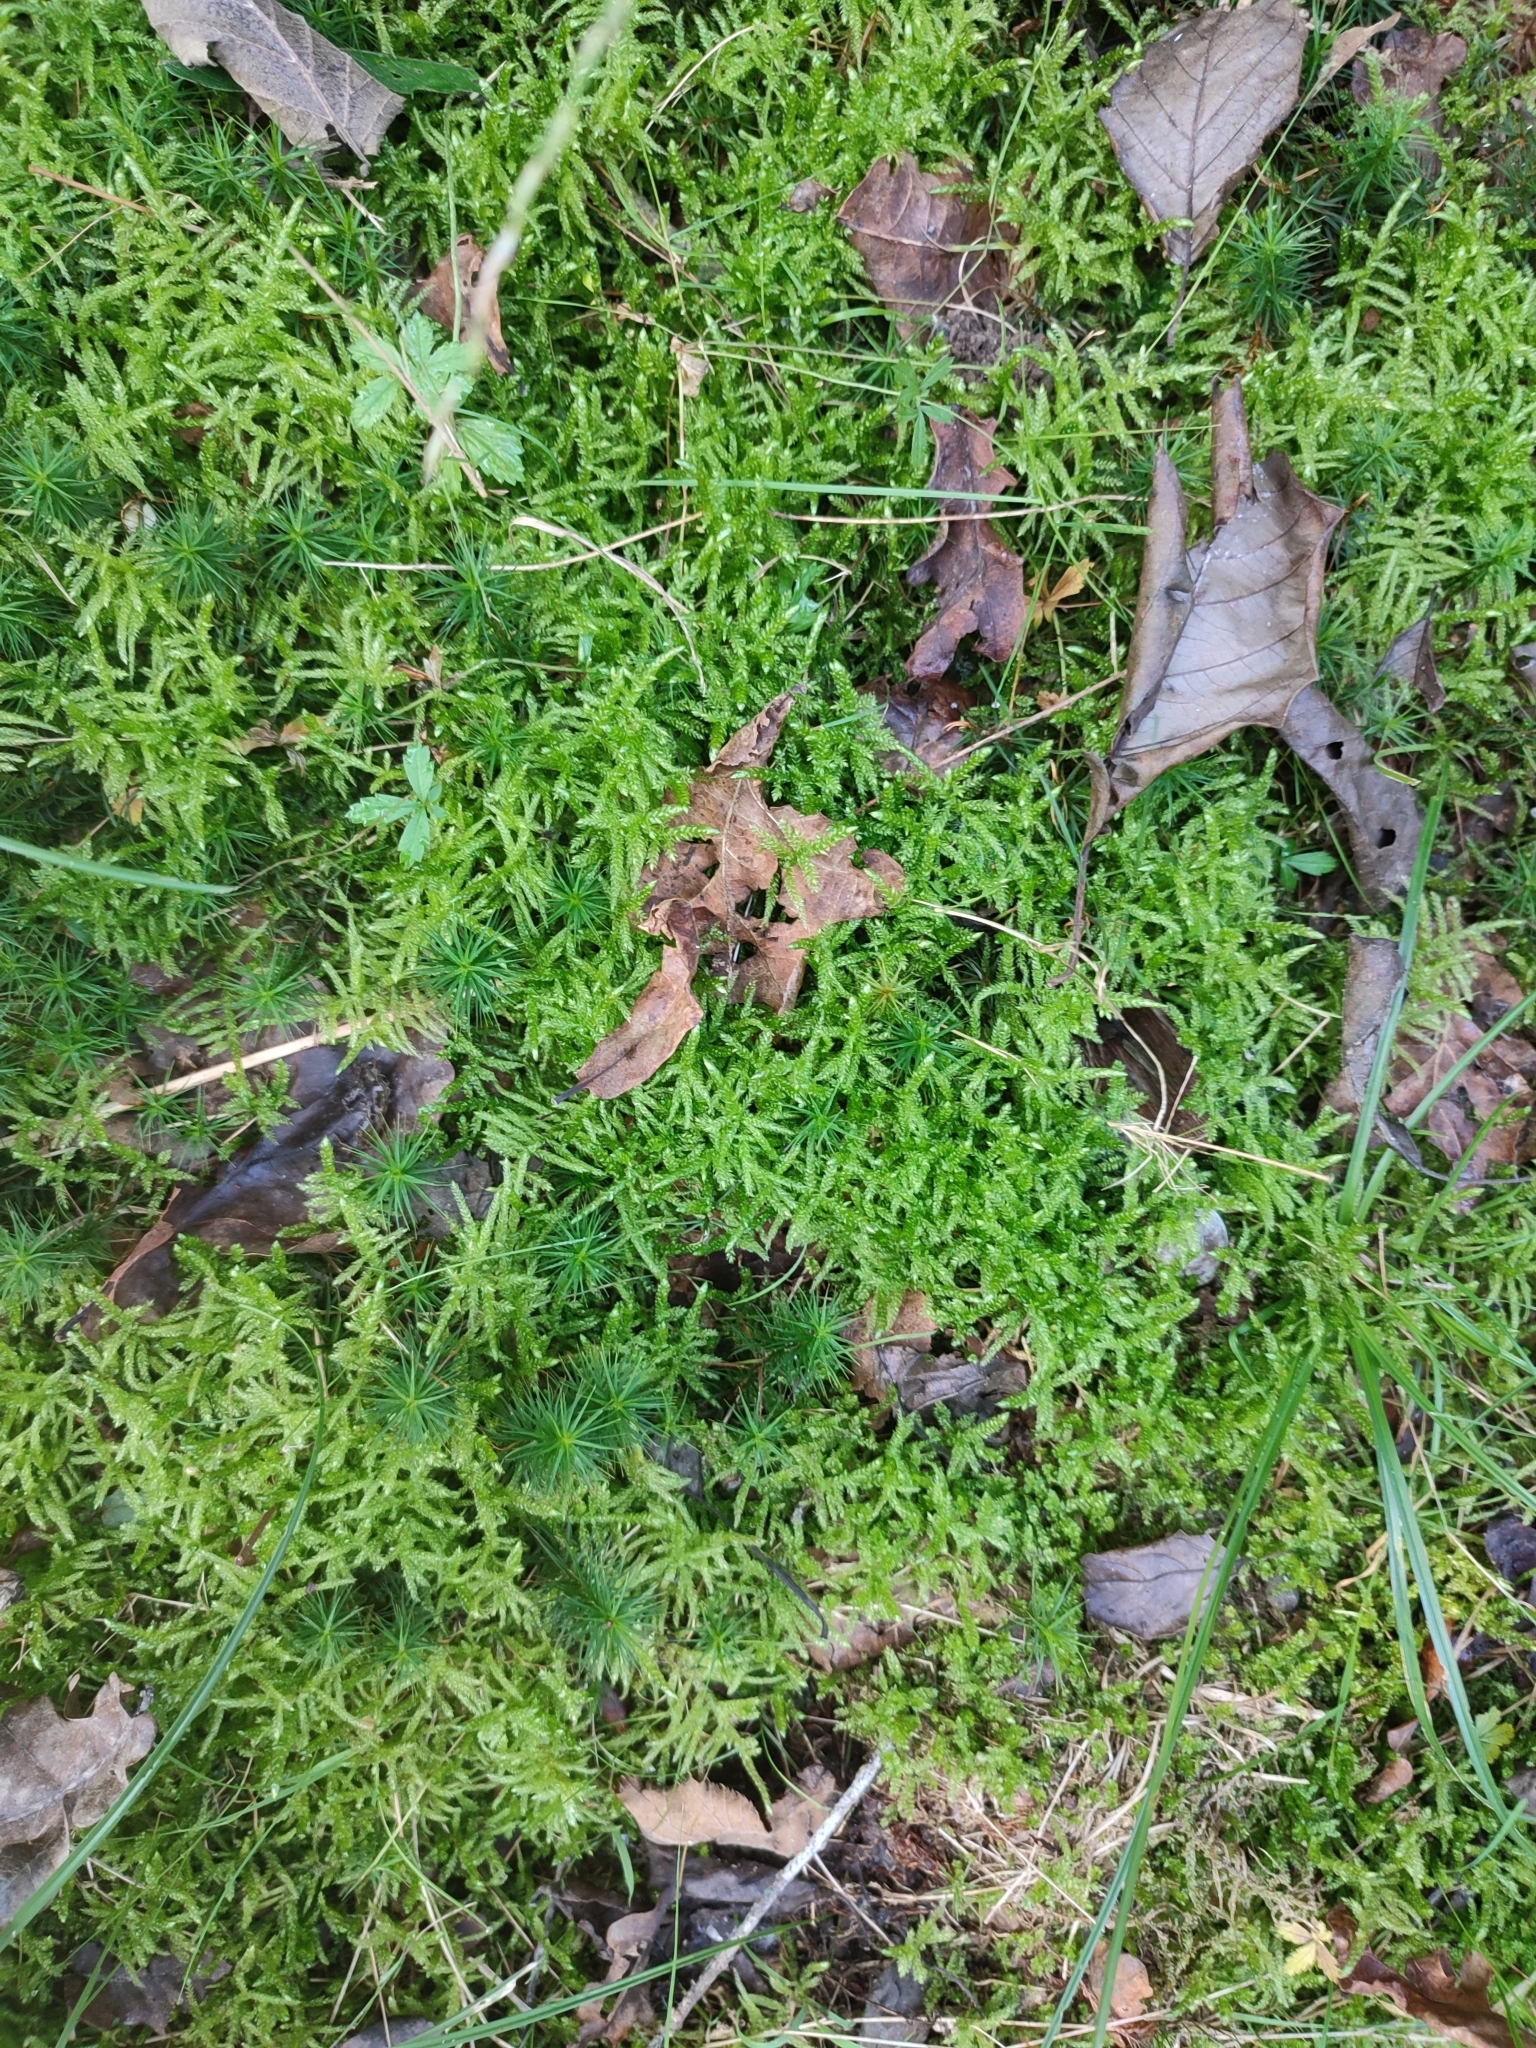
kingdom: Plantae
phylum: Bryophyta
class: Bryopsida
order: Hypnales
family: Brachytheciaceae
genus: Pseudoscleropodium
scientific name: Pseudoscleropodium purum
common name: Neat feather-moss
